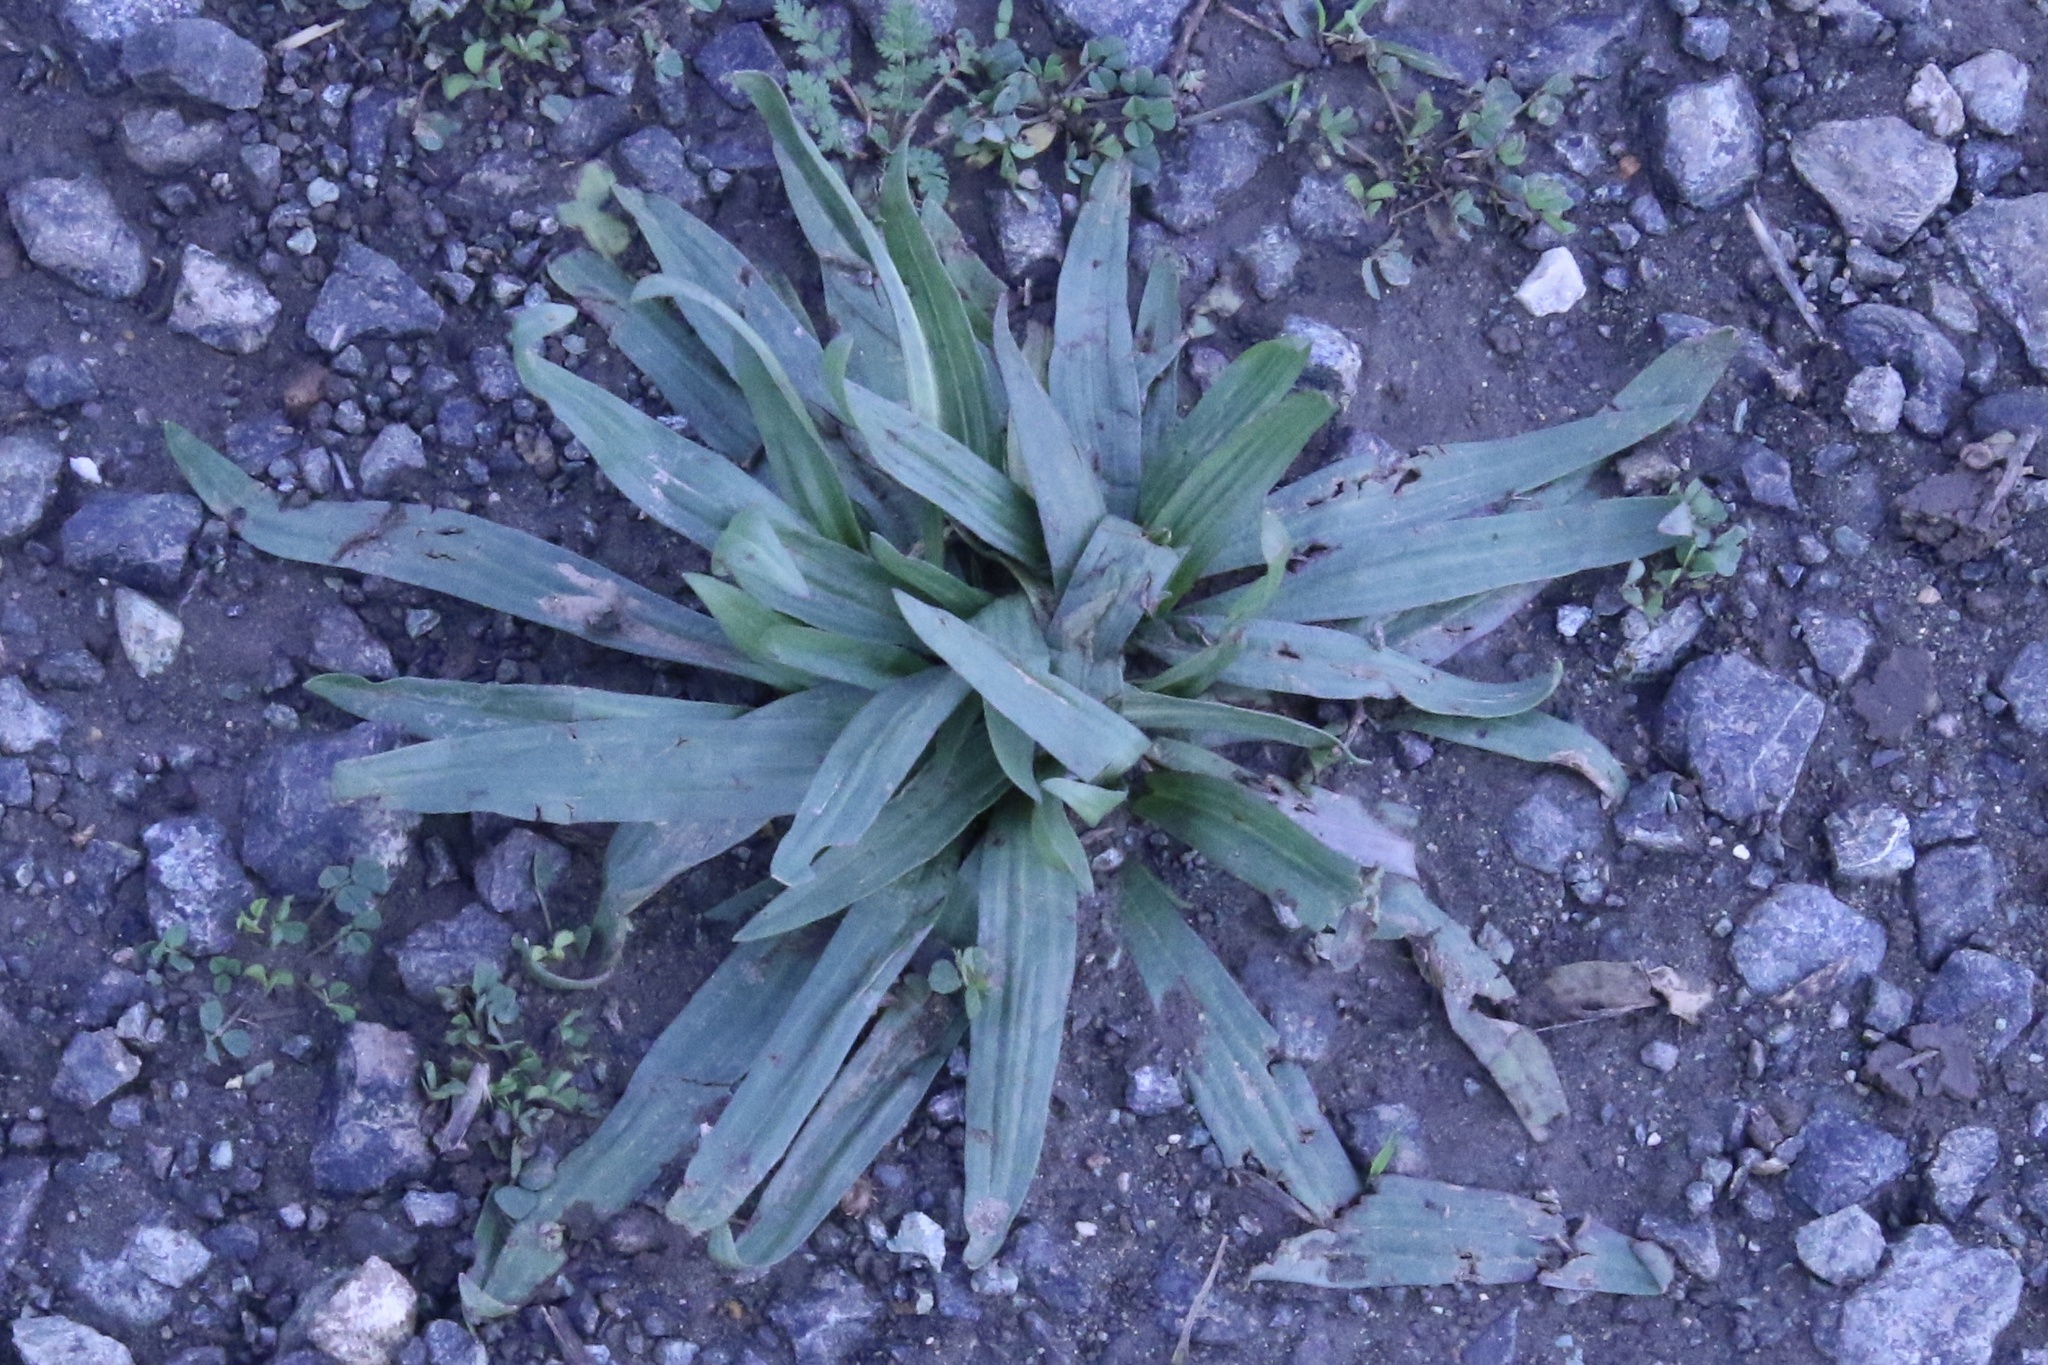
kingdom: Plantae
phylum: Tracheophyta
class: Magnoliopsida
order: Lamiales
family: Plantaginaceae
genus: Plantago
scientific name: Plantago lanceolata
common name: Ribwort plantain
